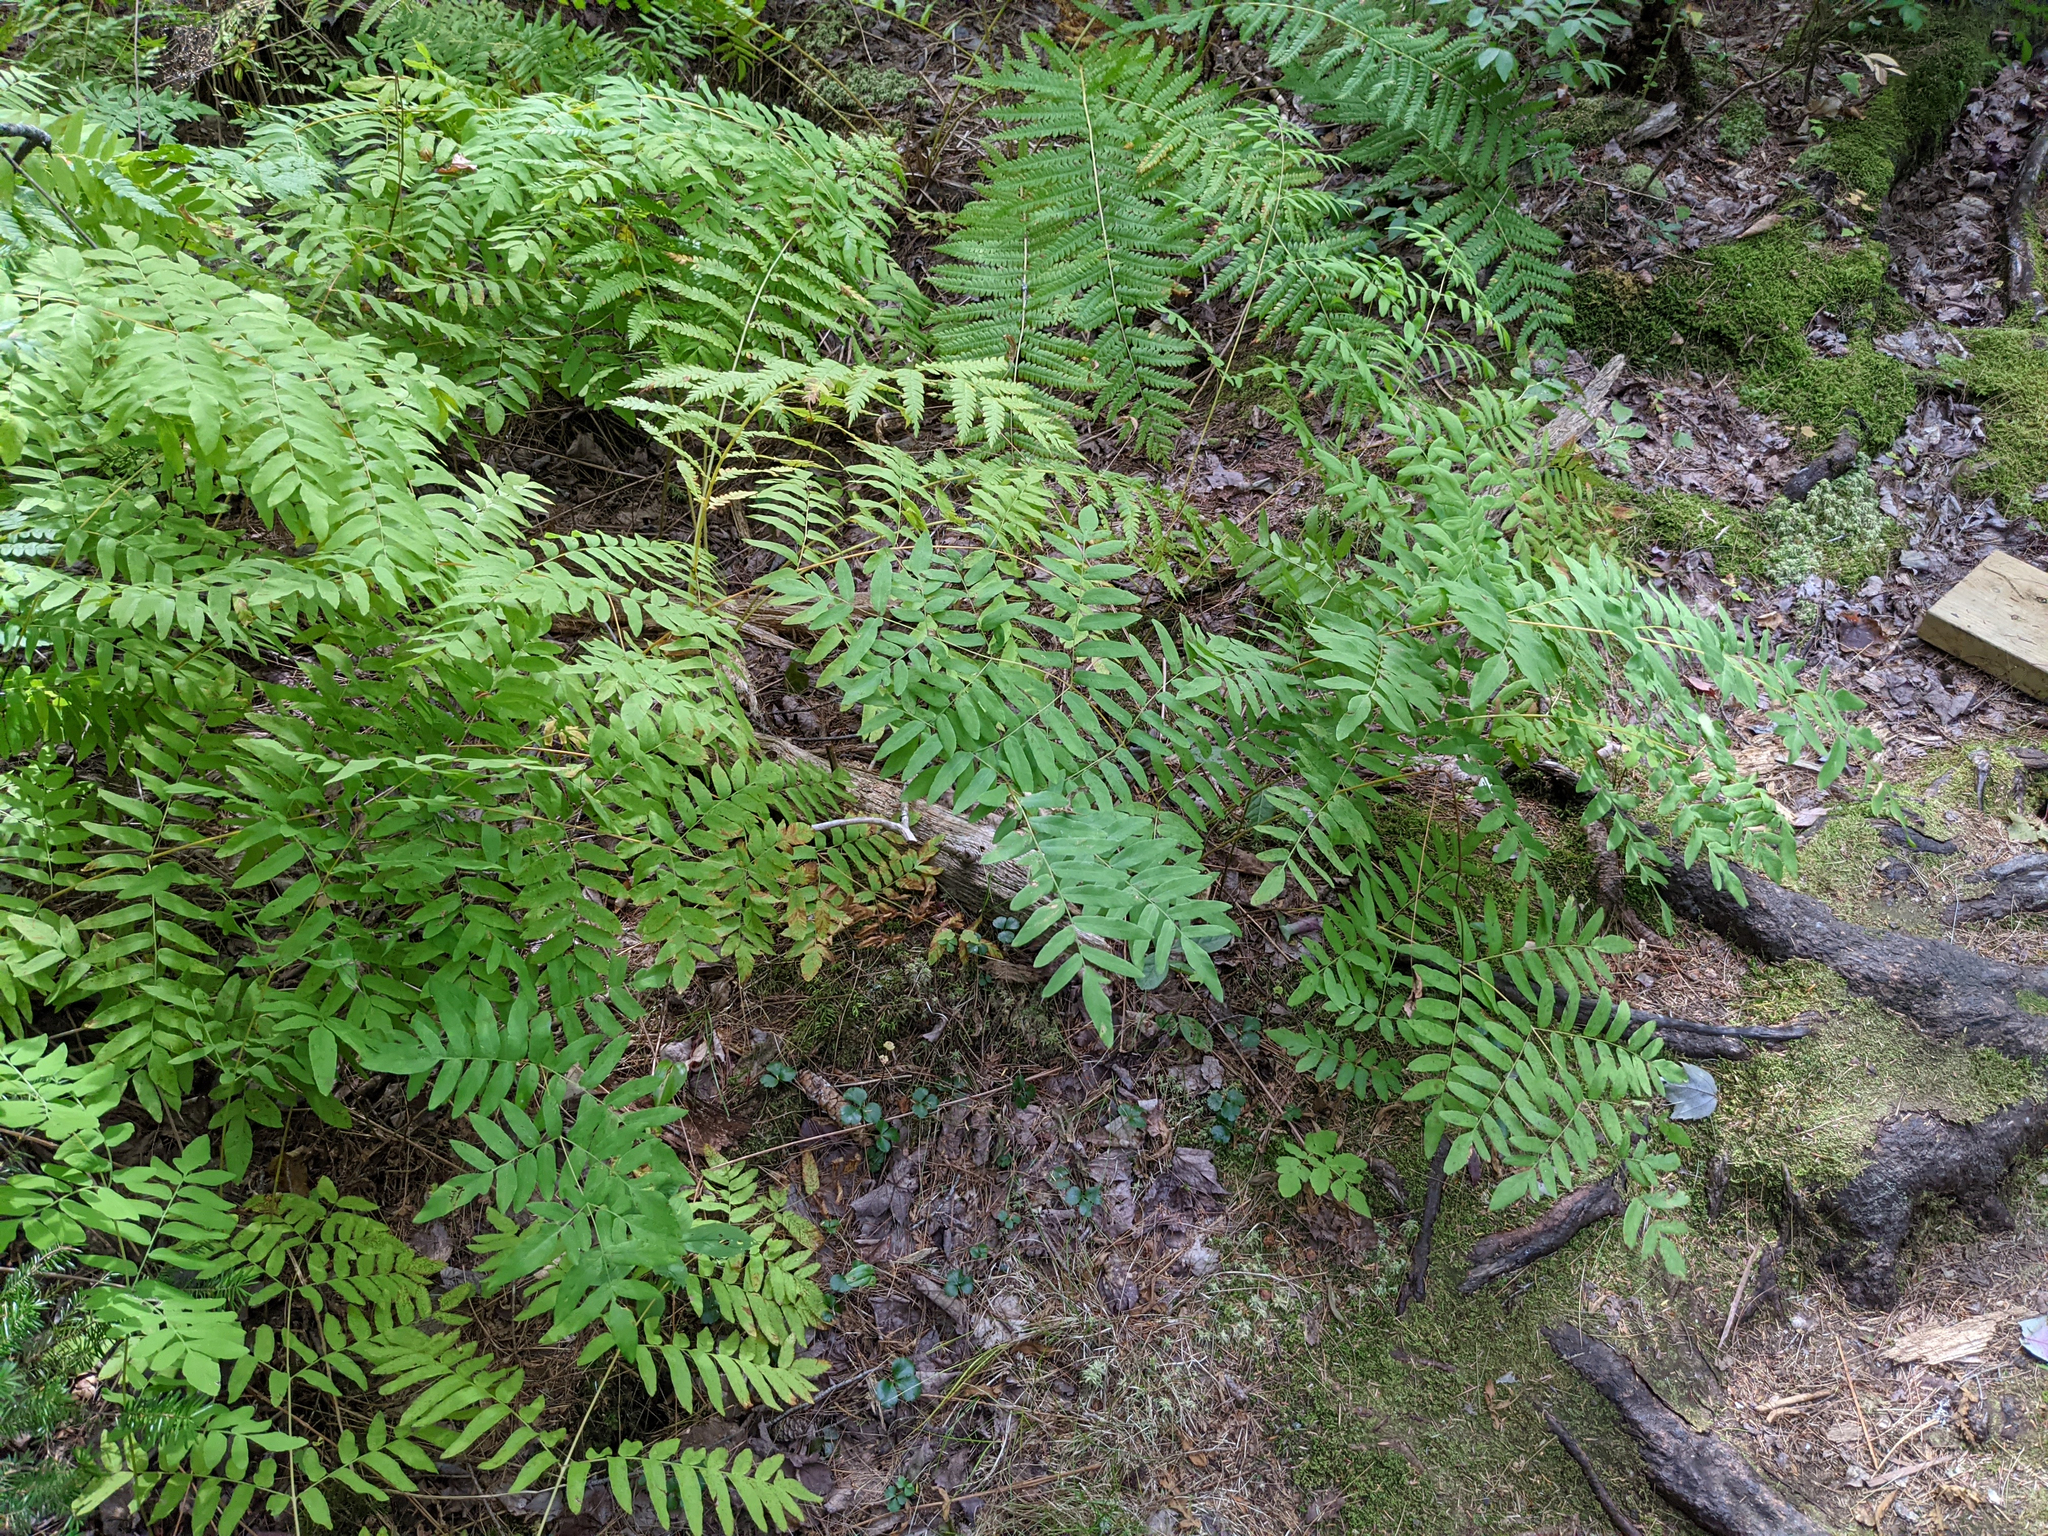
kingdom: Plantae
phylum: Tracheophyta
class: Polypodiopsida
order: Osmundales
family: Osmundaceae
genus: Osmunda
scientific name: Osmunda spectabilis
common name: American royal fern
